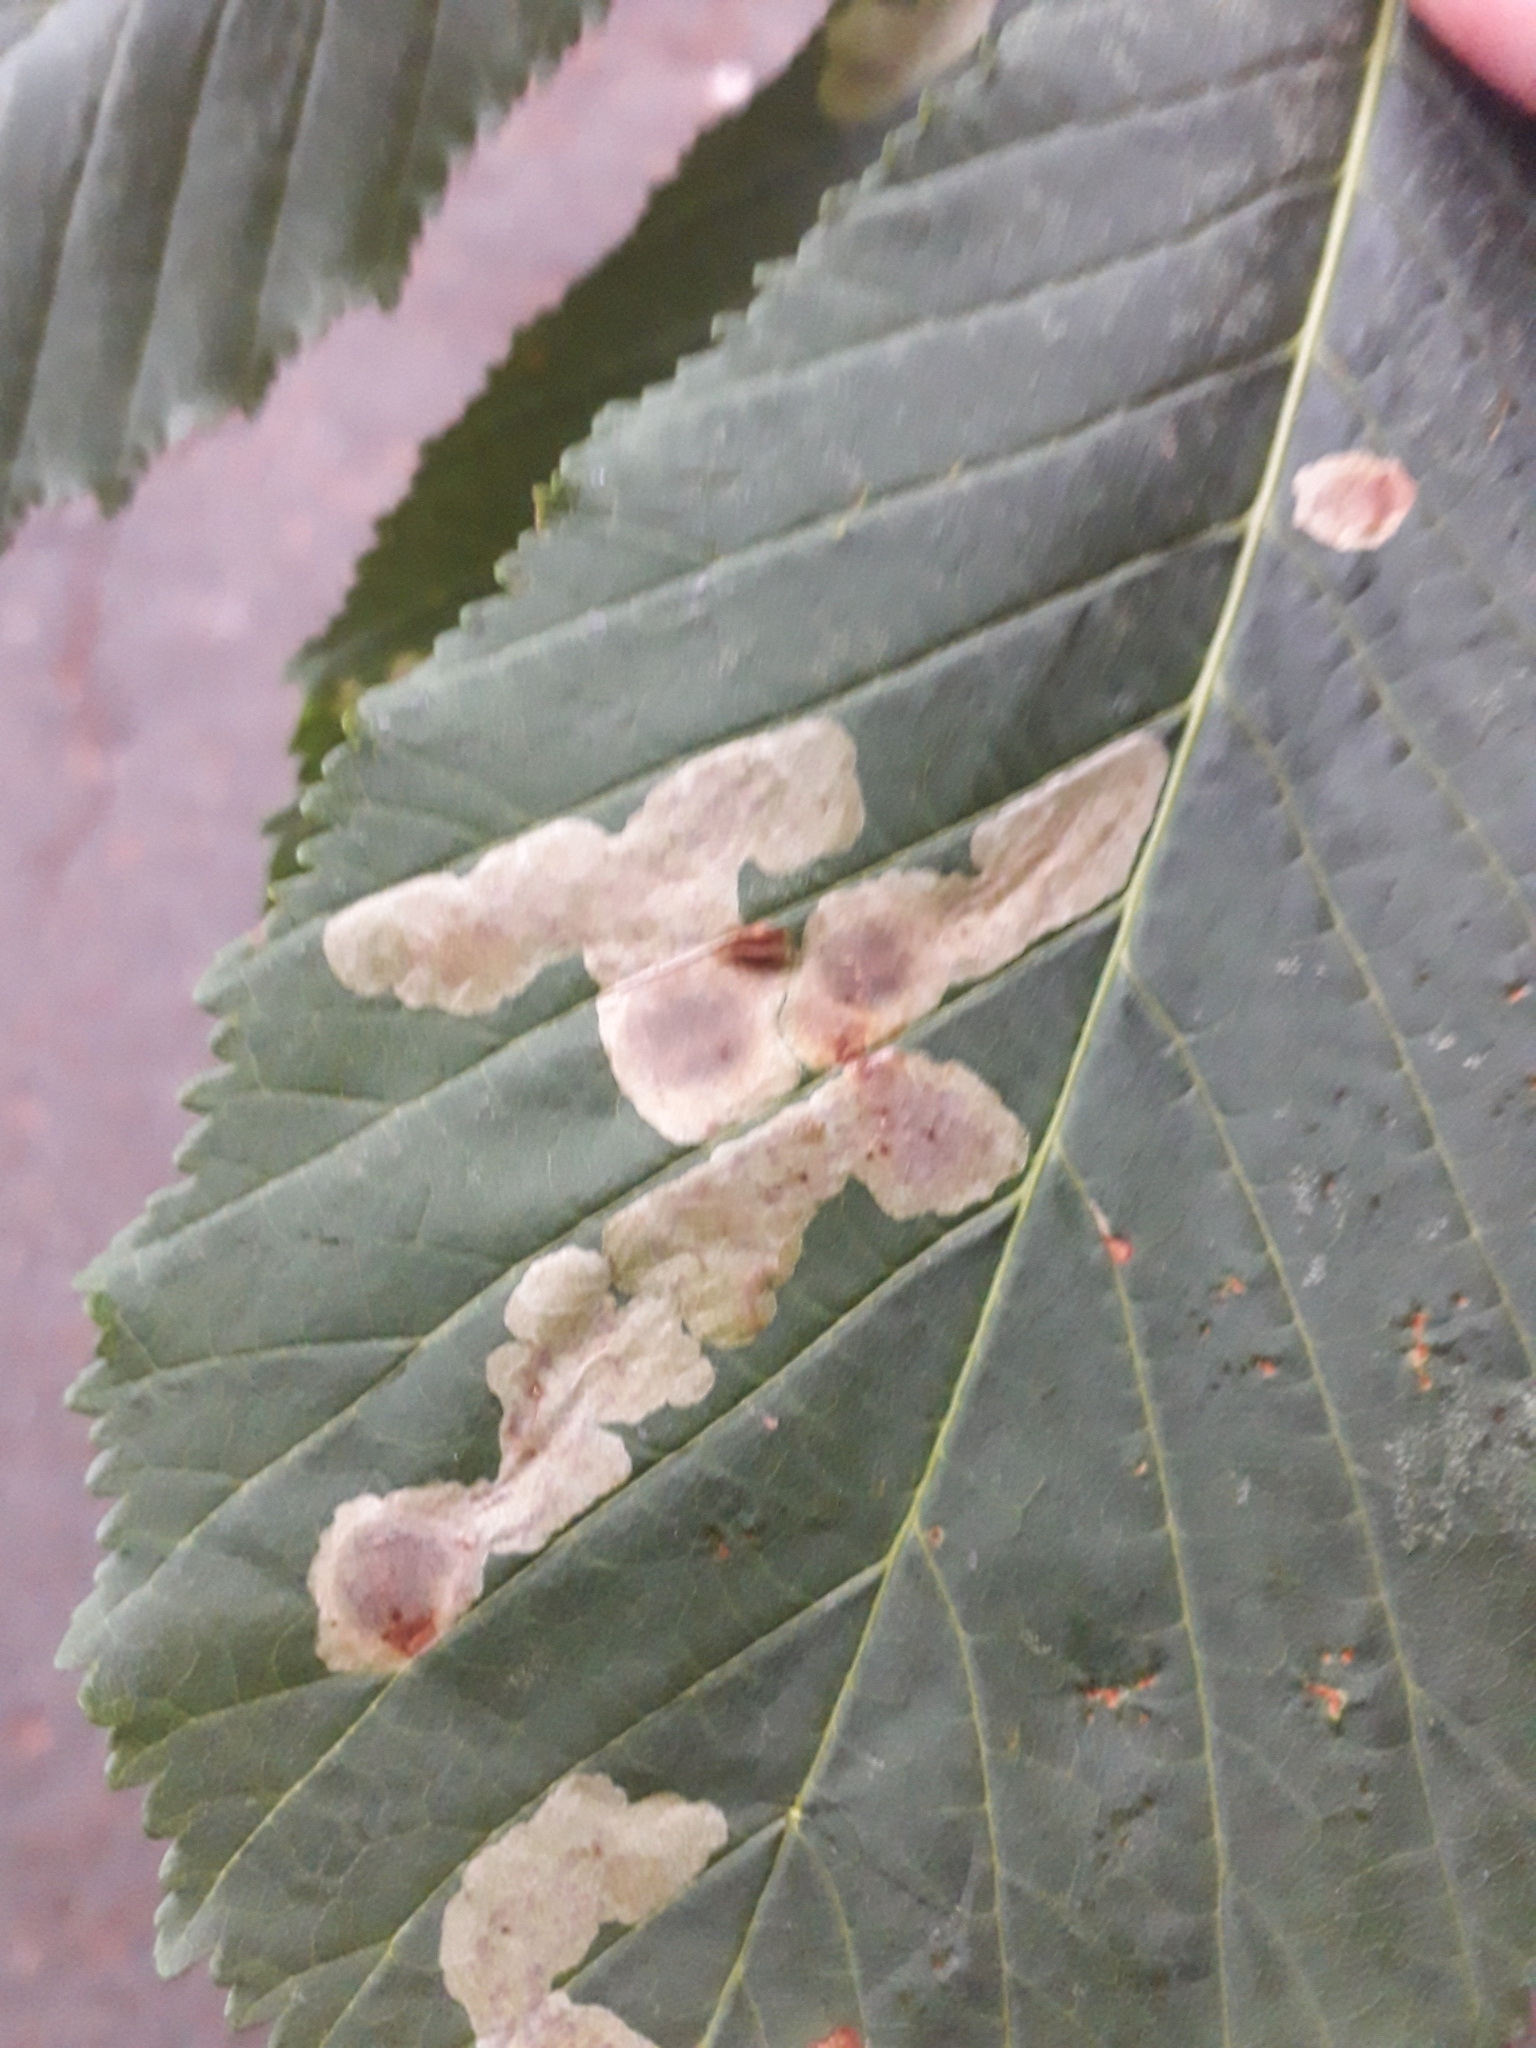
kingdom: Animalia
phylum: Arthropoda
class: Insecta
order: Lepidoptera
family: Gracillariidae
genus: Cameraria
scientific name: Cameraria ohridella
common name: Horse-chestnut leaf-miner
